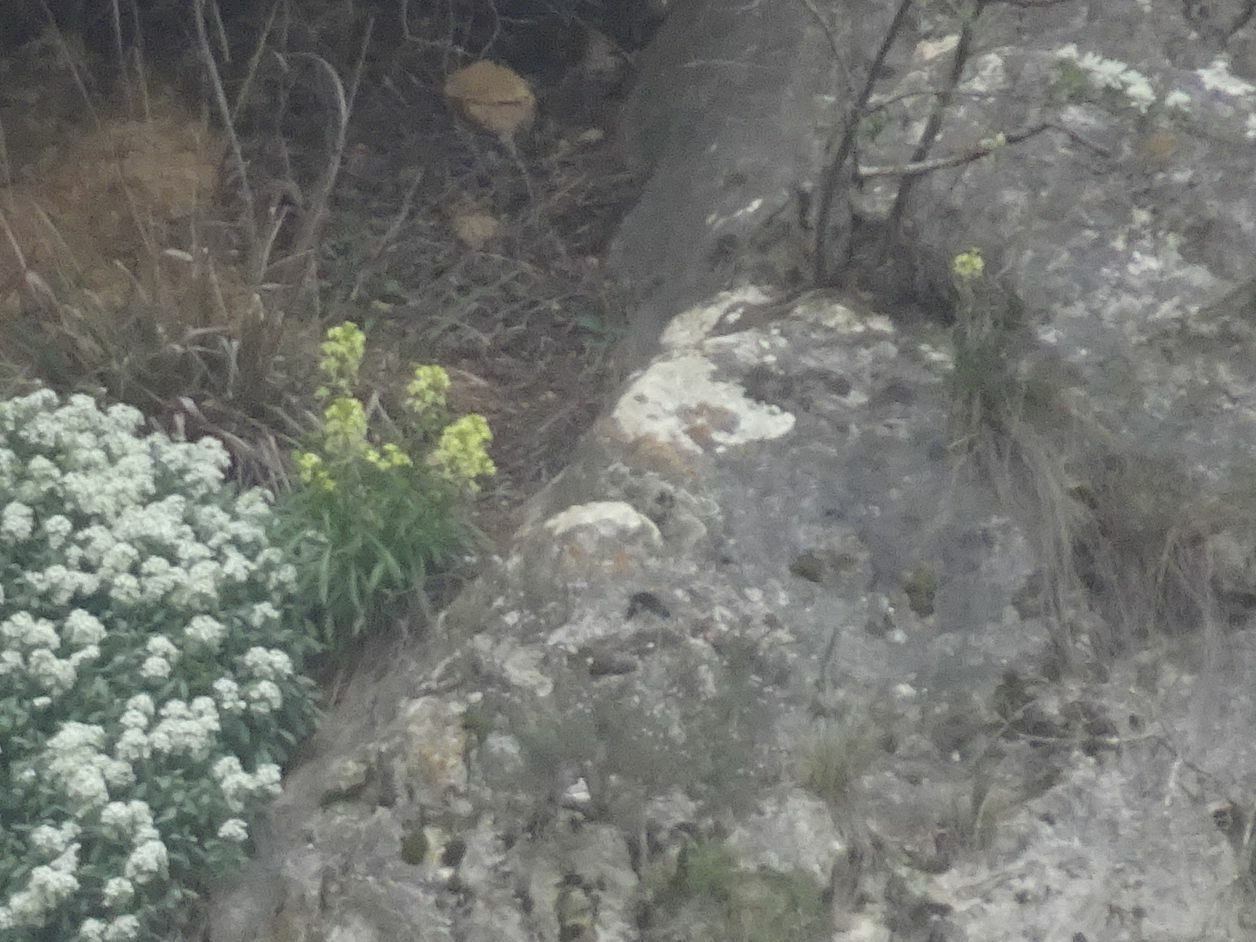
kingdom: Plantae
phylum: Tracheophyta
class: Magnoliopsida
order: Brassicales
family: Brassicaceae
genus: Erysimum
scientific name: Erysimum nevadense
